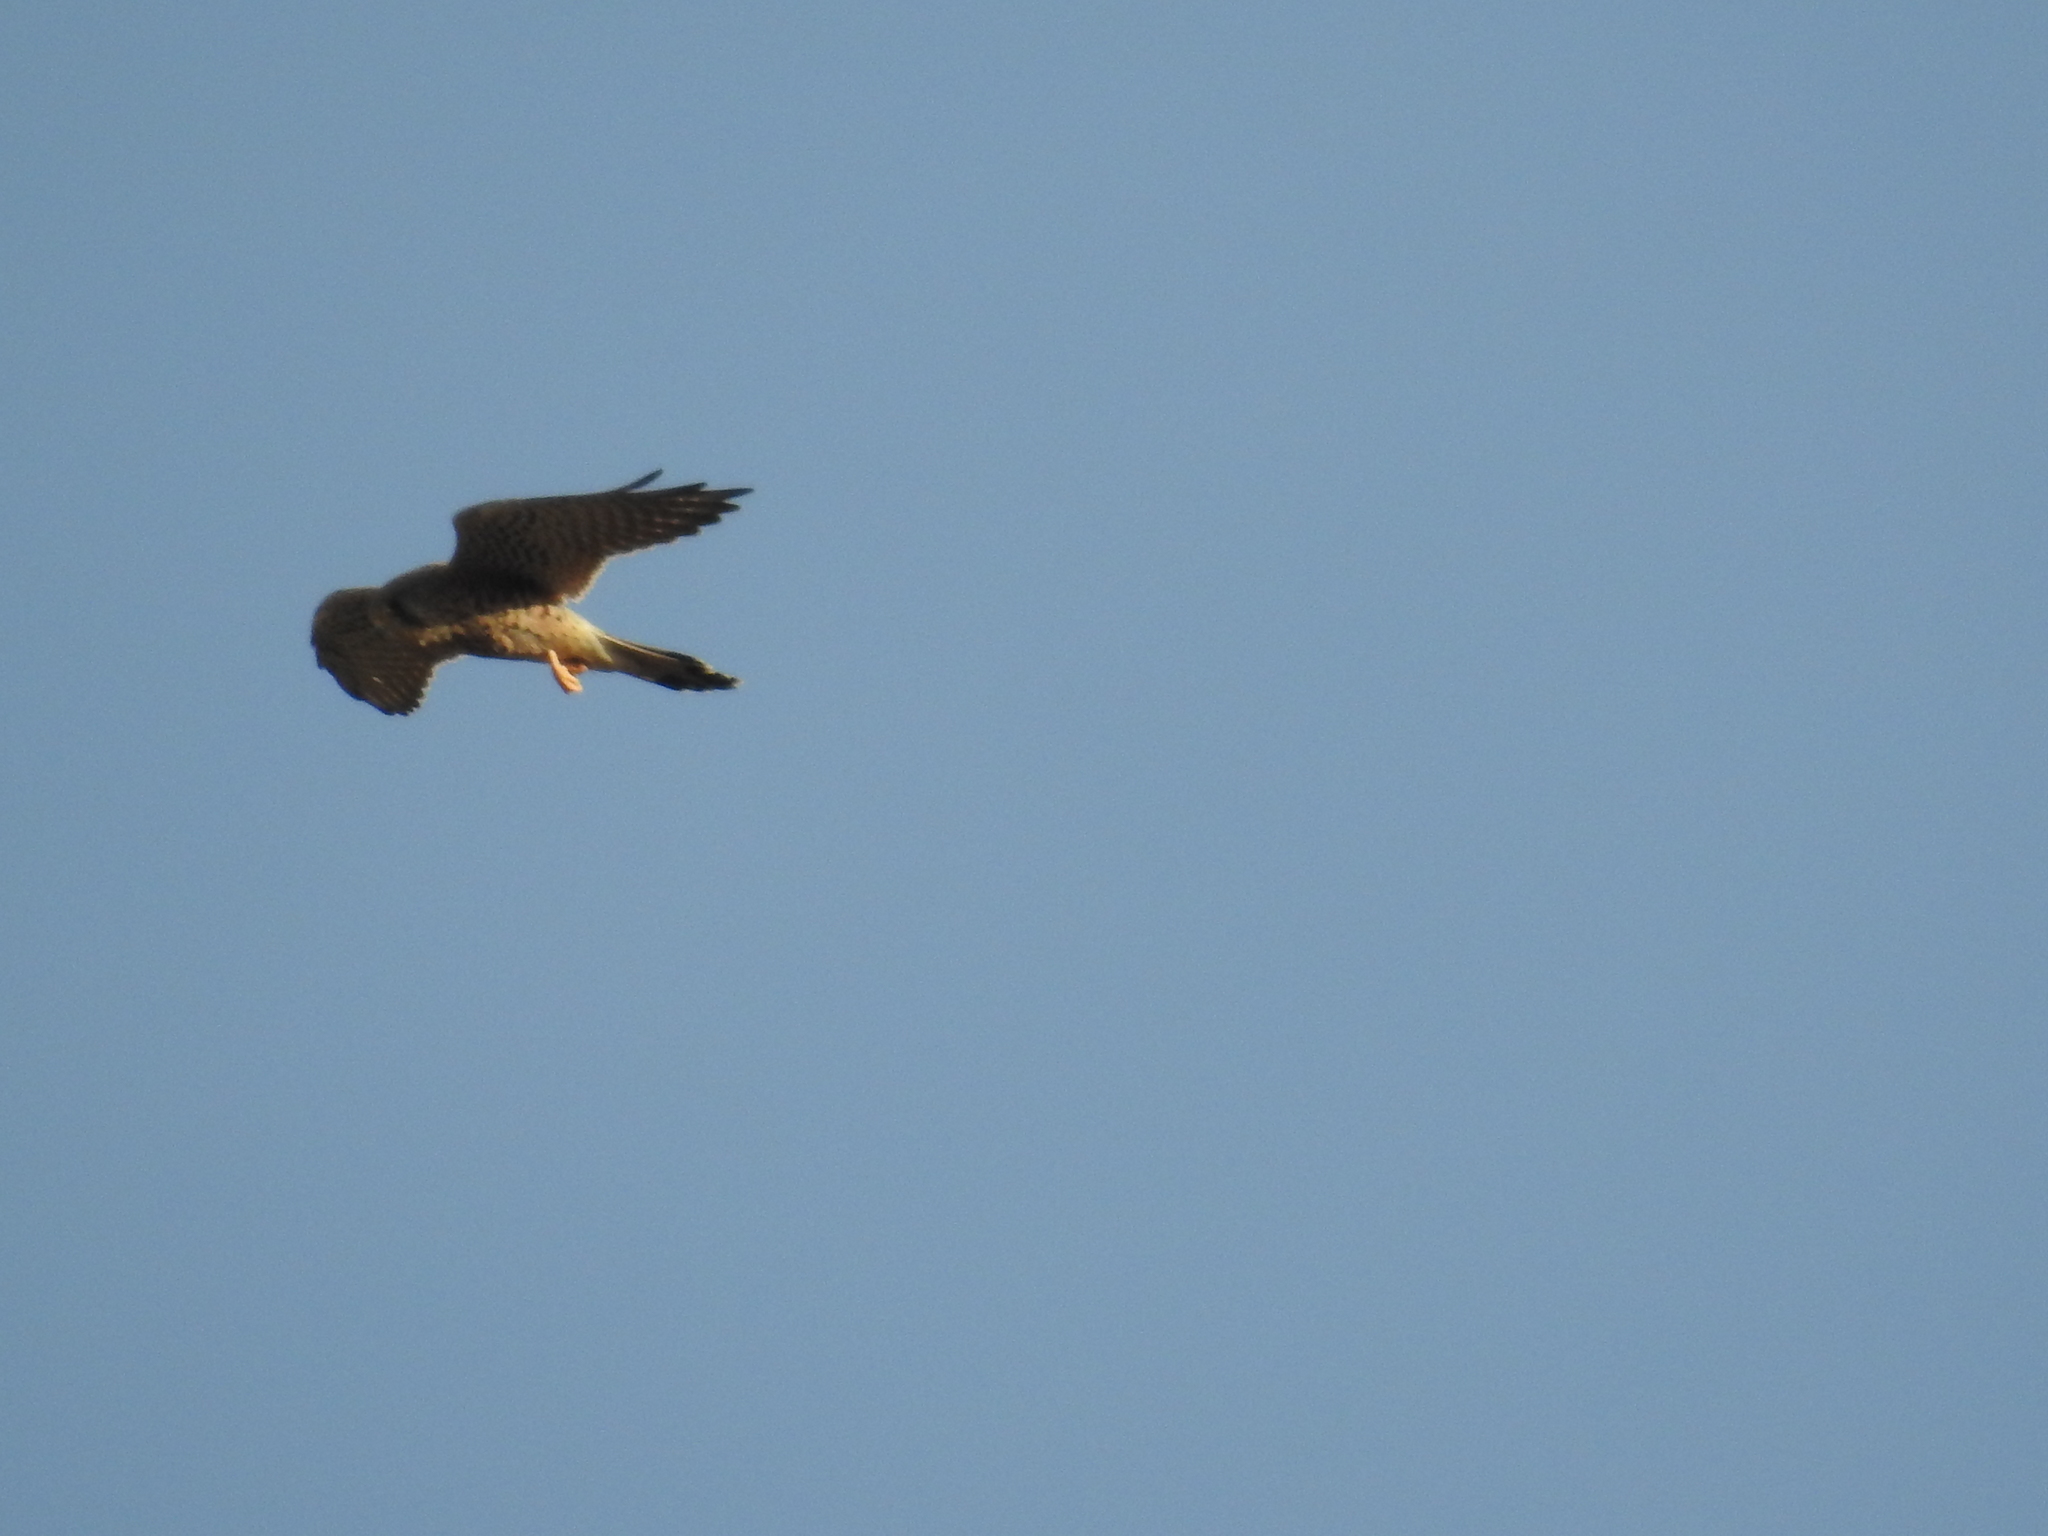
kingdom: Animalia
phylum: Chordata
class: Aves
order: Falconiformes
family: Falconidae
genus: Falco
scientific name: Falco tinnunculus
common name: Common kestrel
